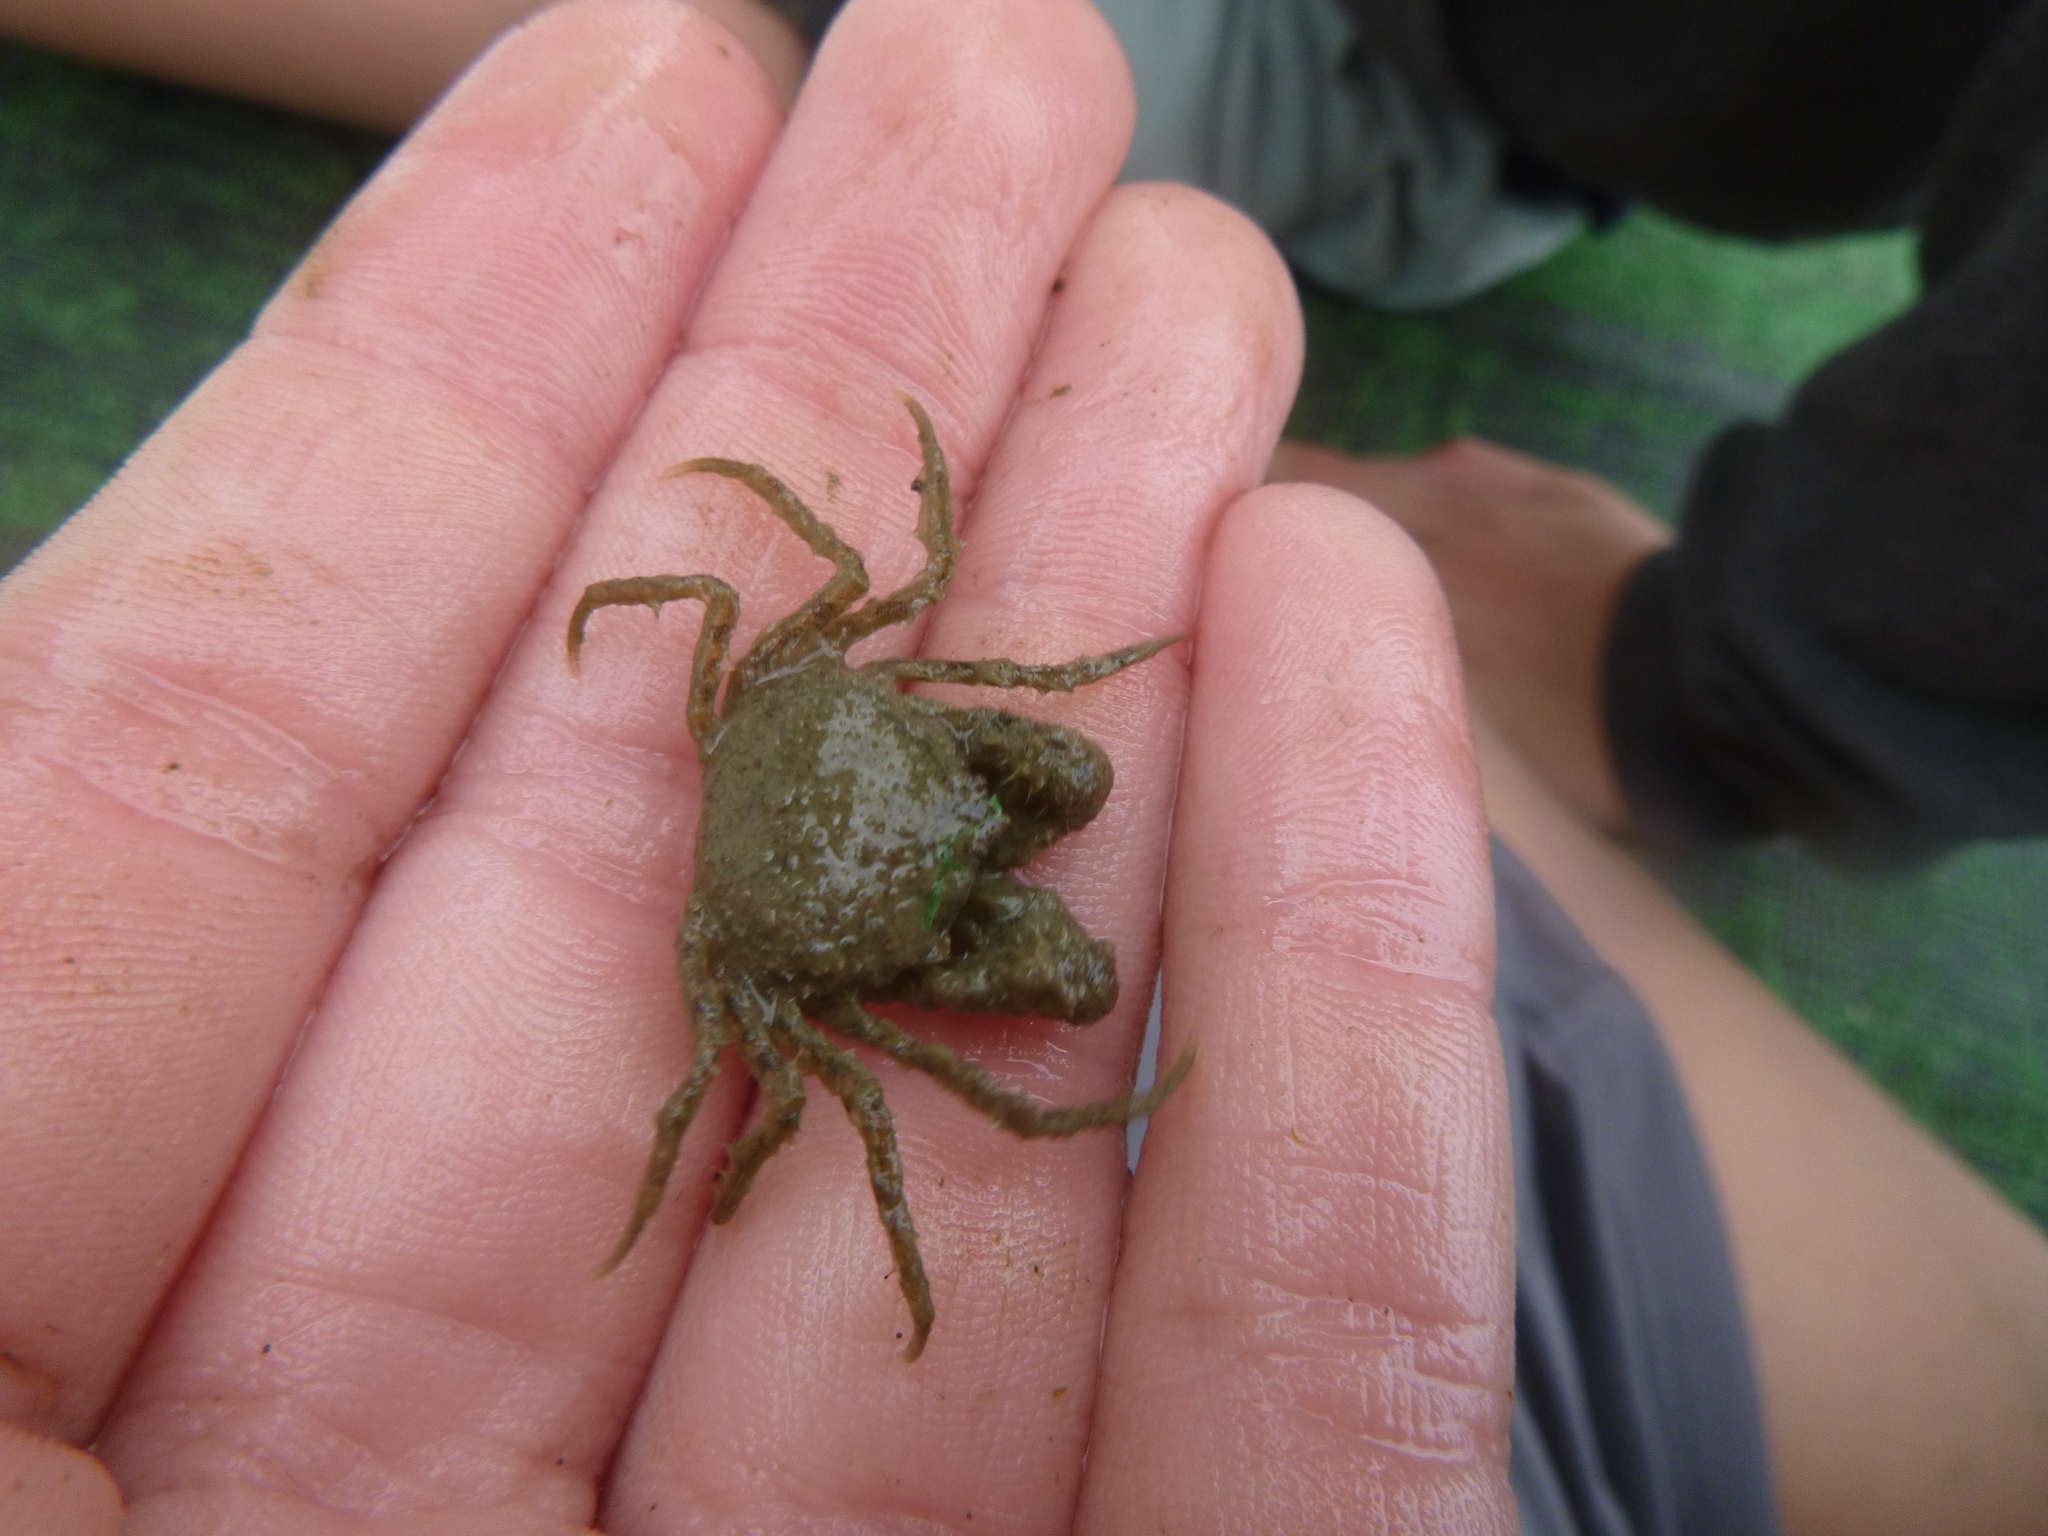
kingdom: Animalia
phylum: Arthropoda
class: Malacostraca
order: Decapoda
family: Hymenosomatidae
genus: Halicarcinus
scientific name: Halicarcinus whitei
